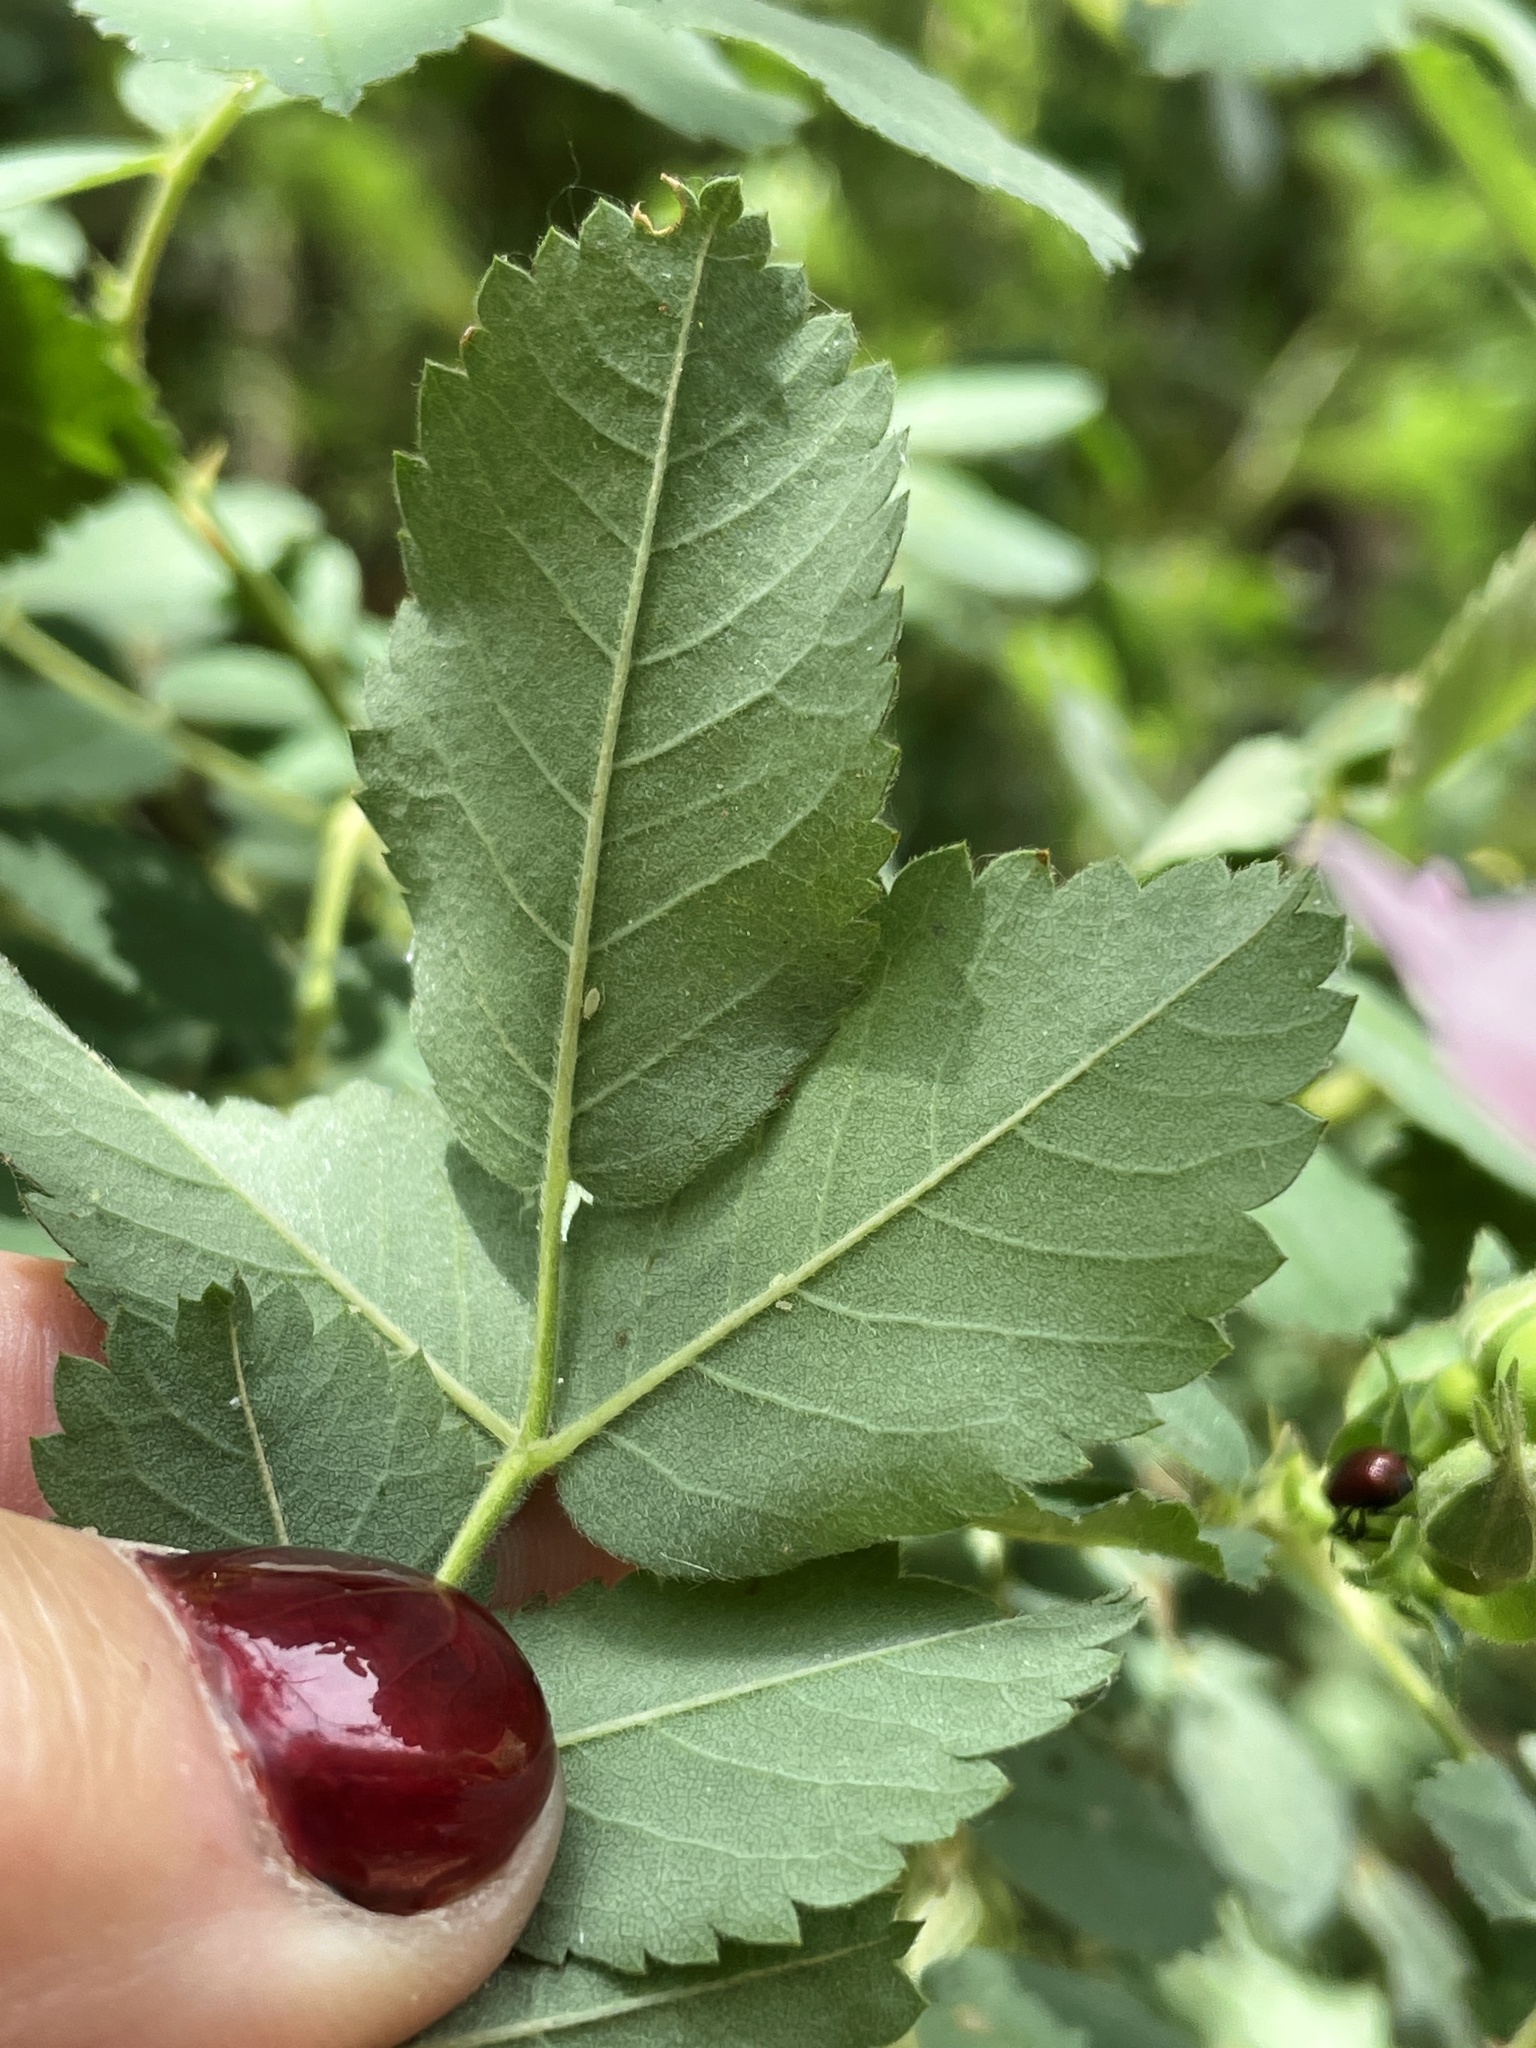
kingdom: Plantae
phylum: Tracheophyta
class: Magnoliopsida
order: Rosales
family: Rosaceae
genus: Rosa
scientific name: Rosa californica
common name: California rose
